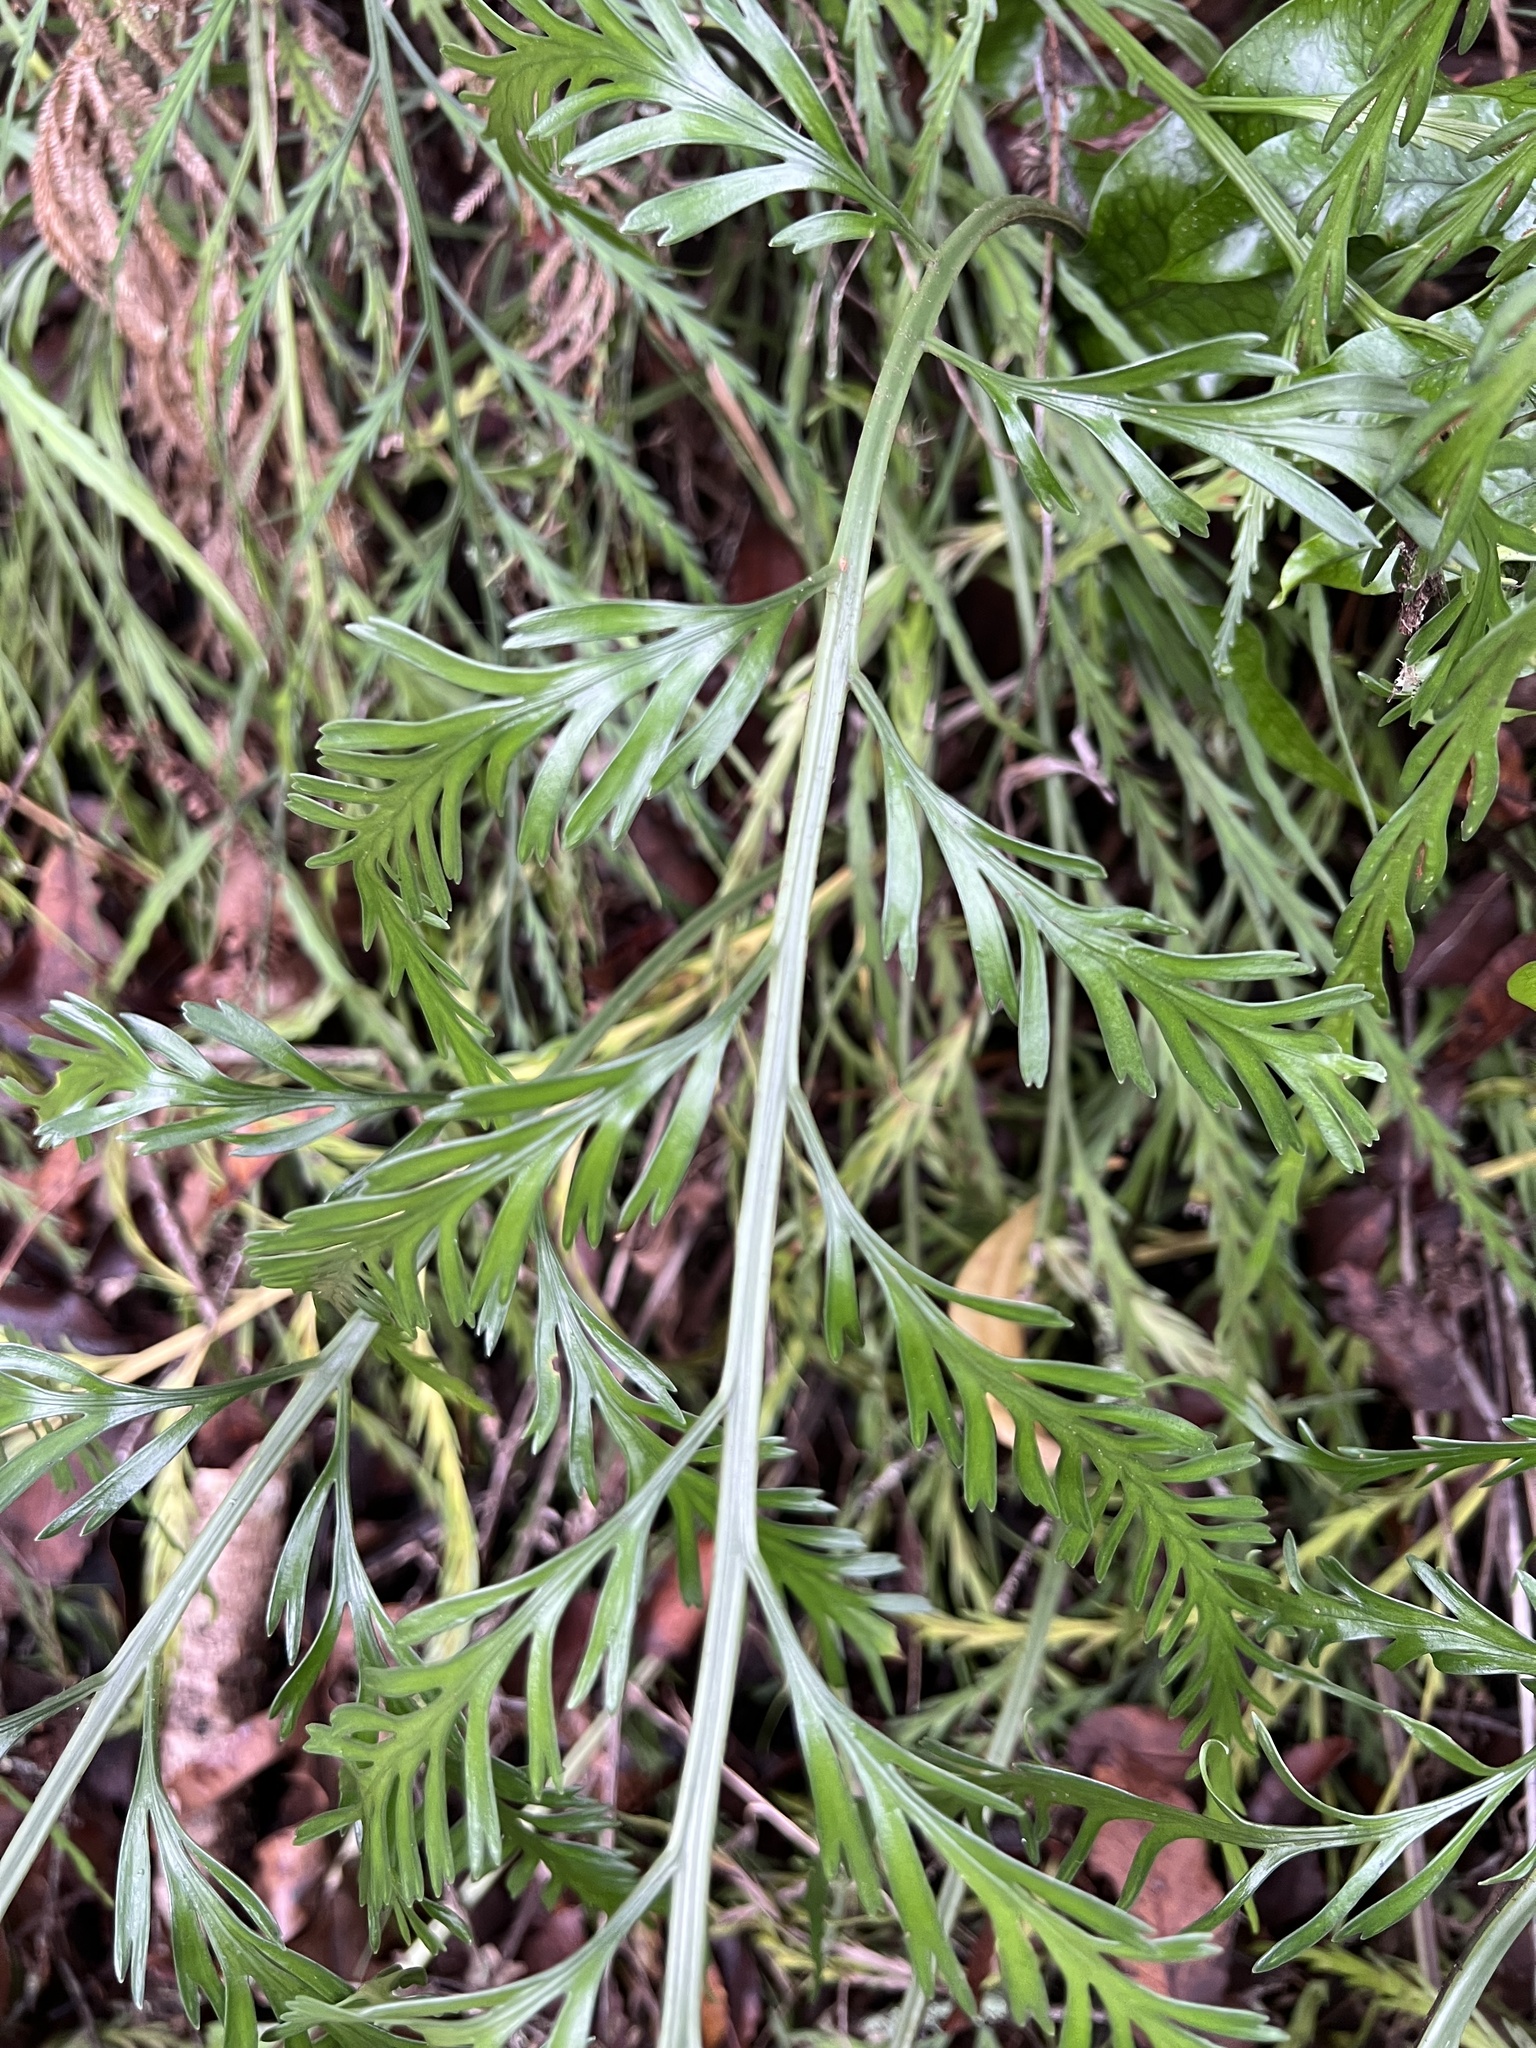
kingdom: Plantae
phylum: Tracheophyta
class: Polypodiopsida
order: Polypodiales
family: Aspleniaceae
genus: Asplenium
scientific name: Asplenium flaccidum
